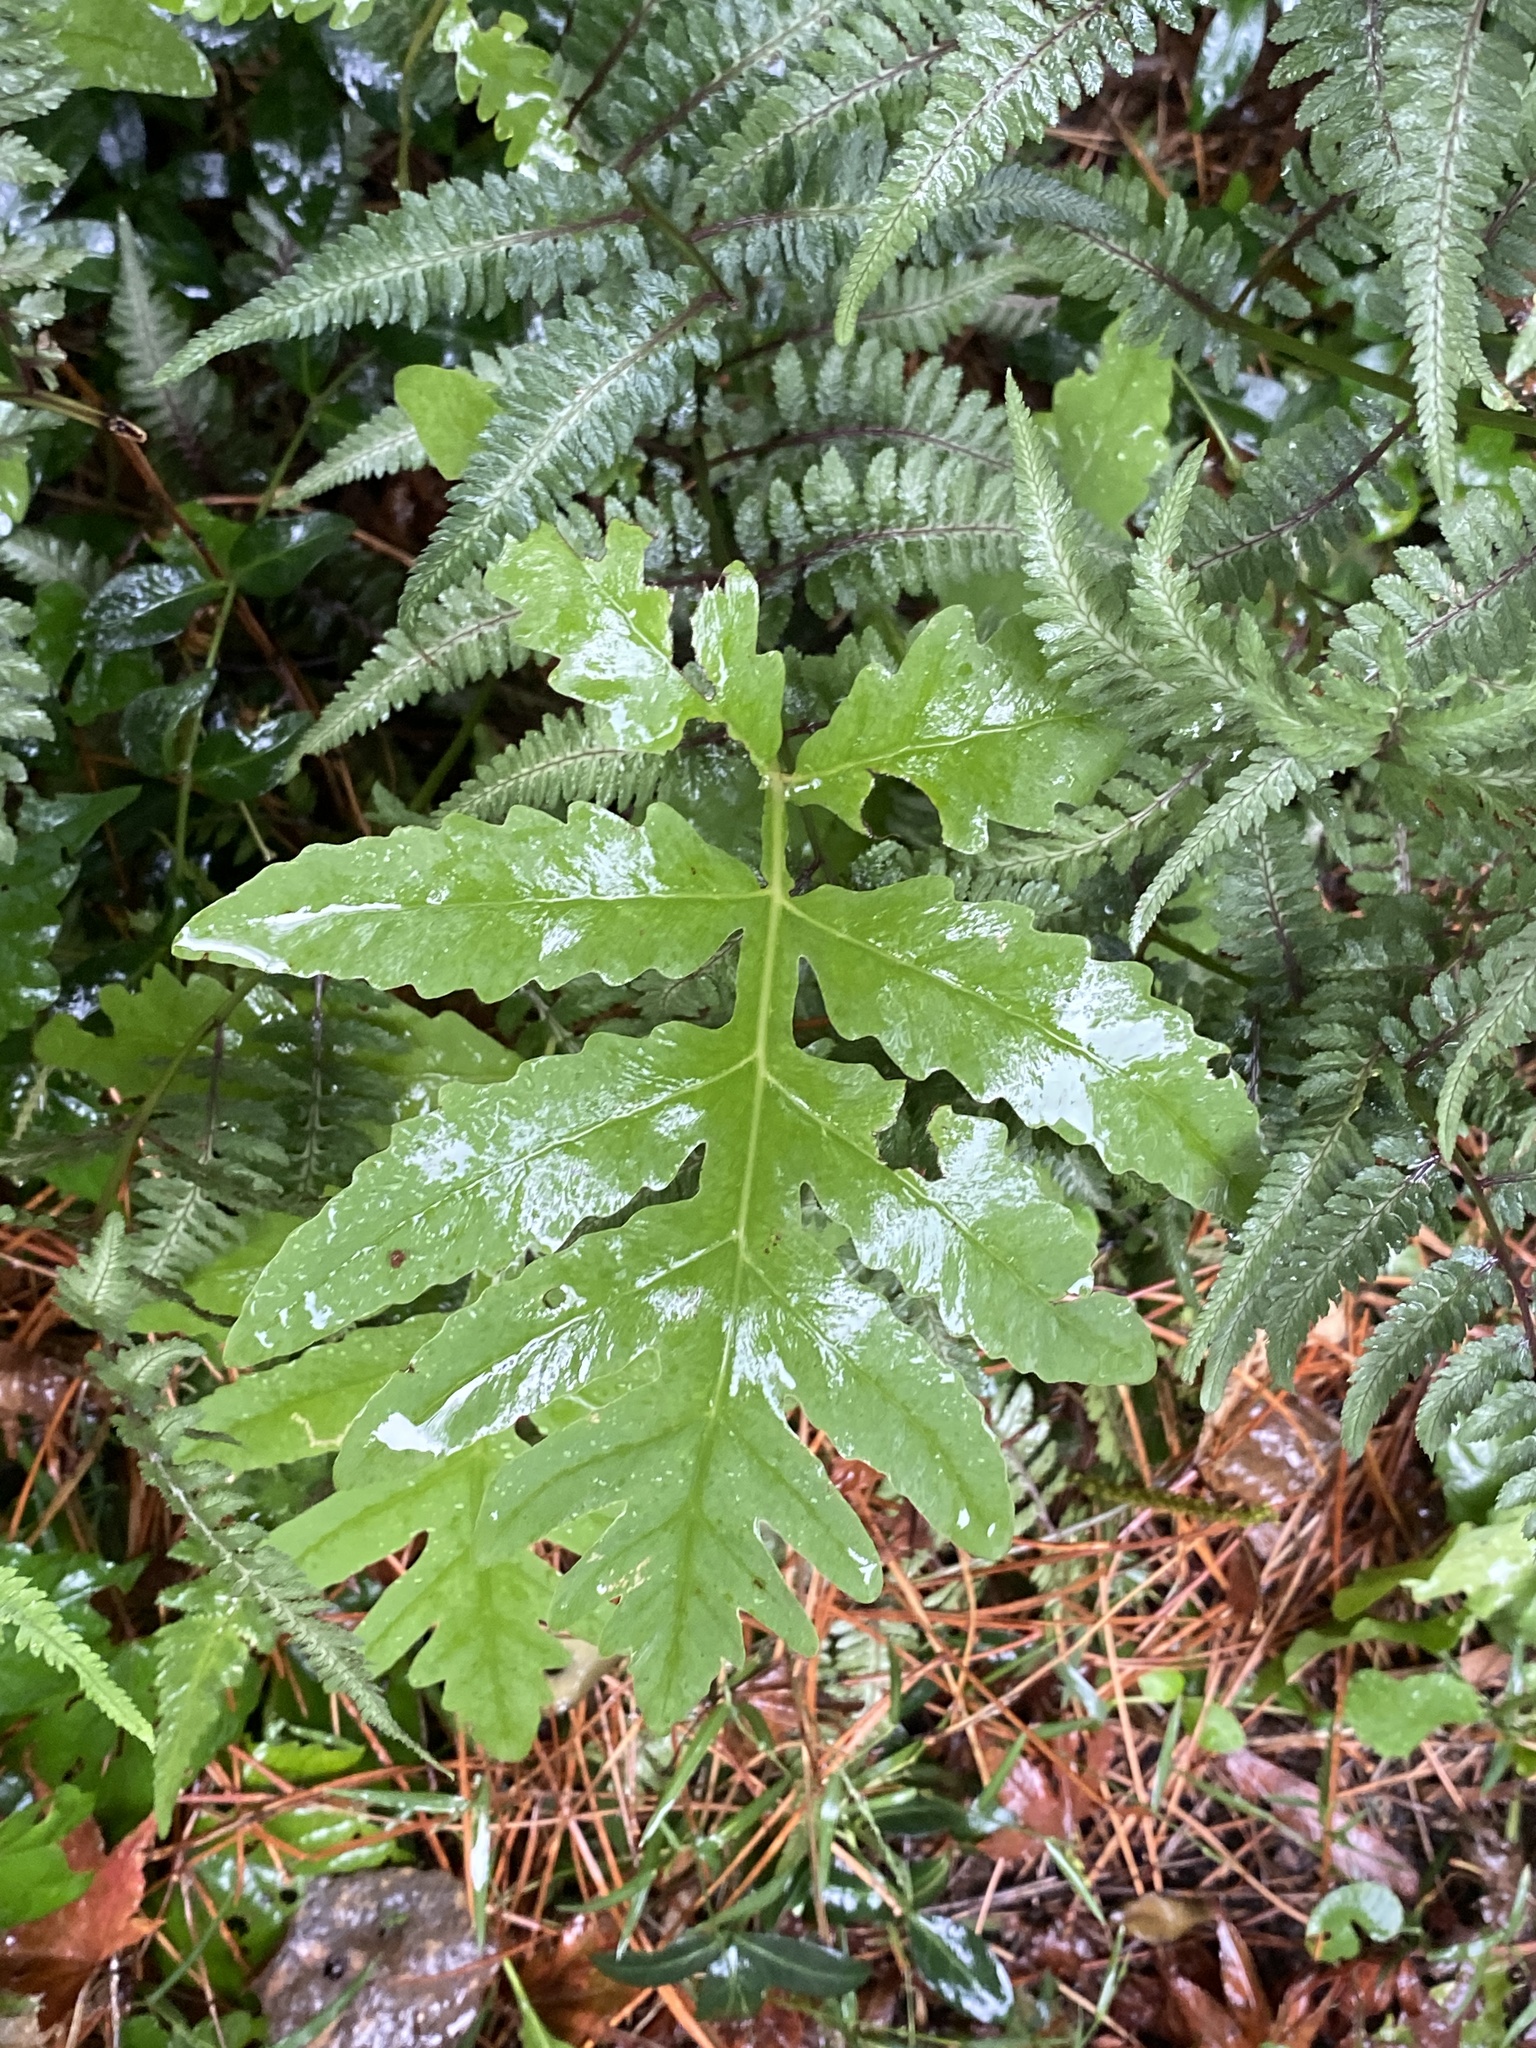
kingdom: Plantae
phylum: Tracheophyta
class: Polypodiopsida
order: Polypodiales
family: Onocleaceae
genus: Onoclea
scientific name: Onoclea sensibilis
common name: Sensitive fern
